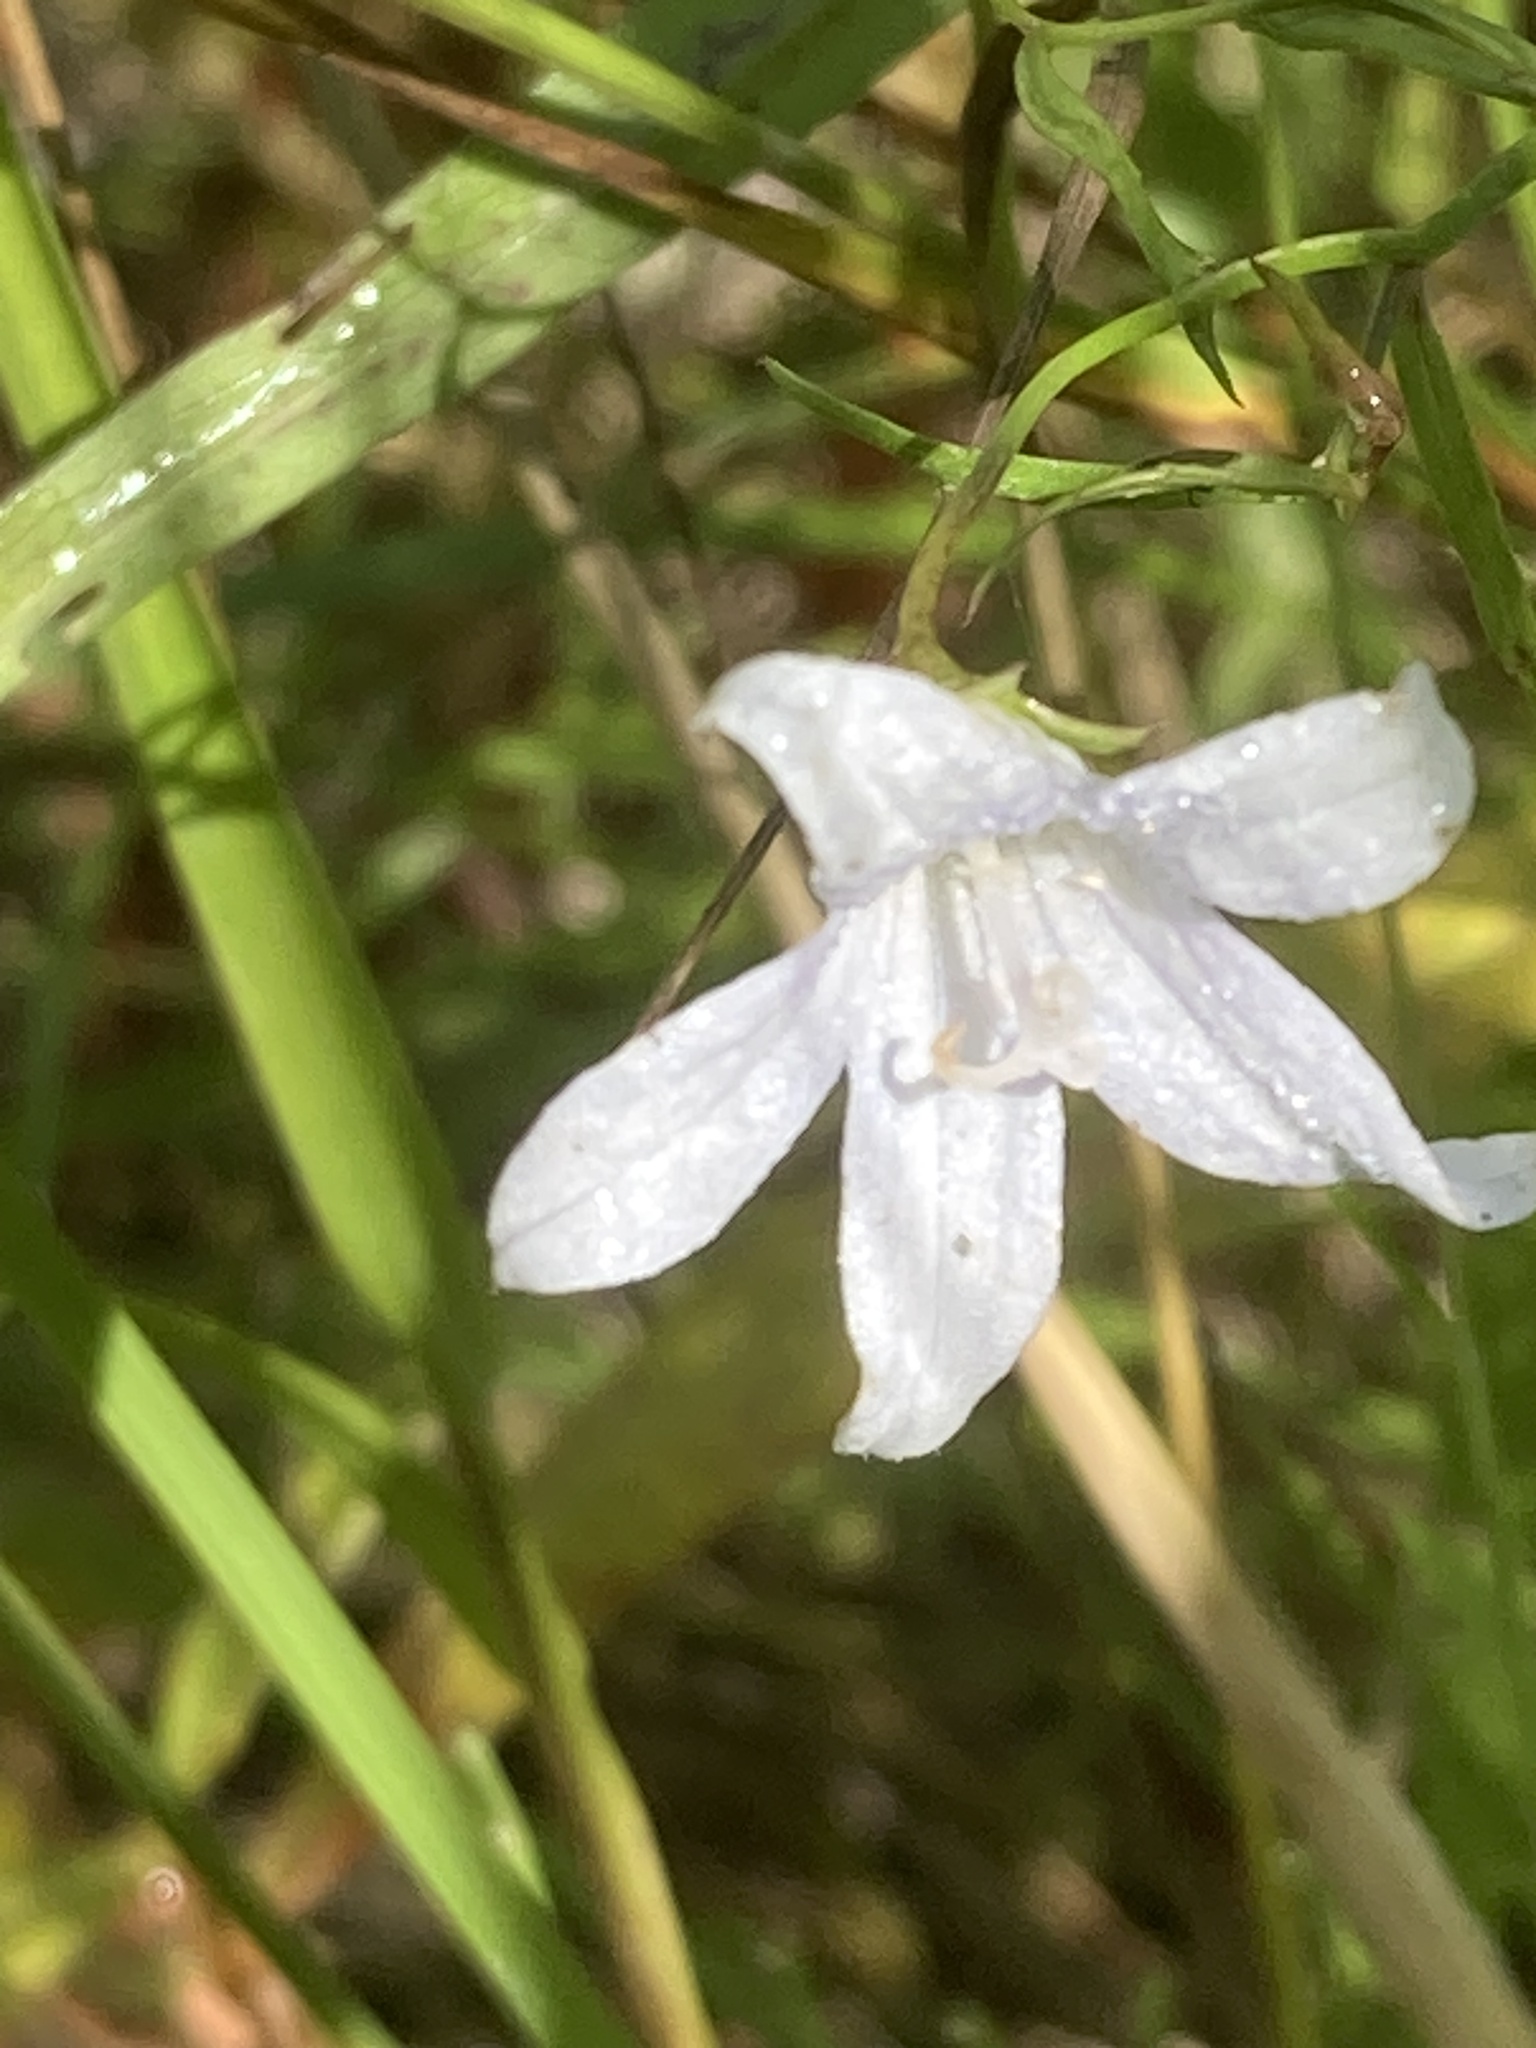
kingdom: Plantae
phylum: Tracheophyta
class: Magnoliopsida
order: Asterales
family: Campanulaceae
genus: Palustricodon
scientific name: Palustricodon aparinoides
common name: Bedstraw bellflower
